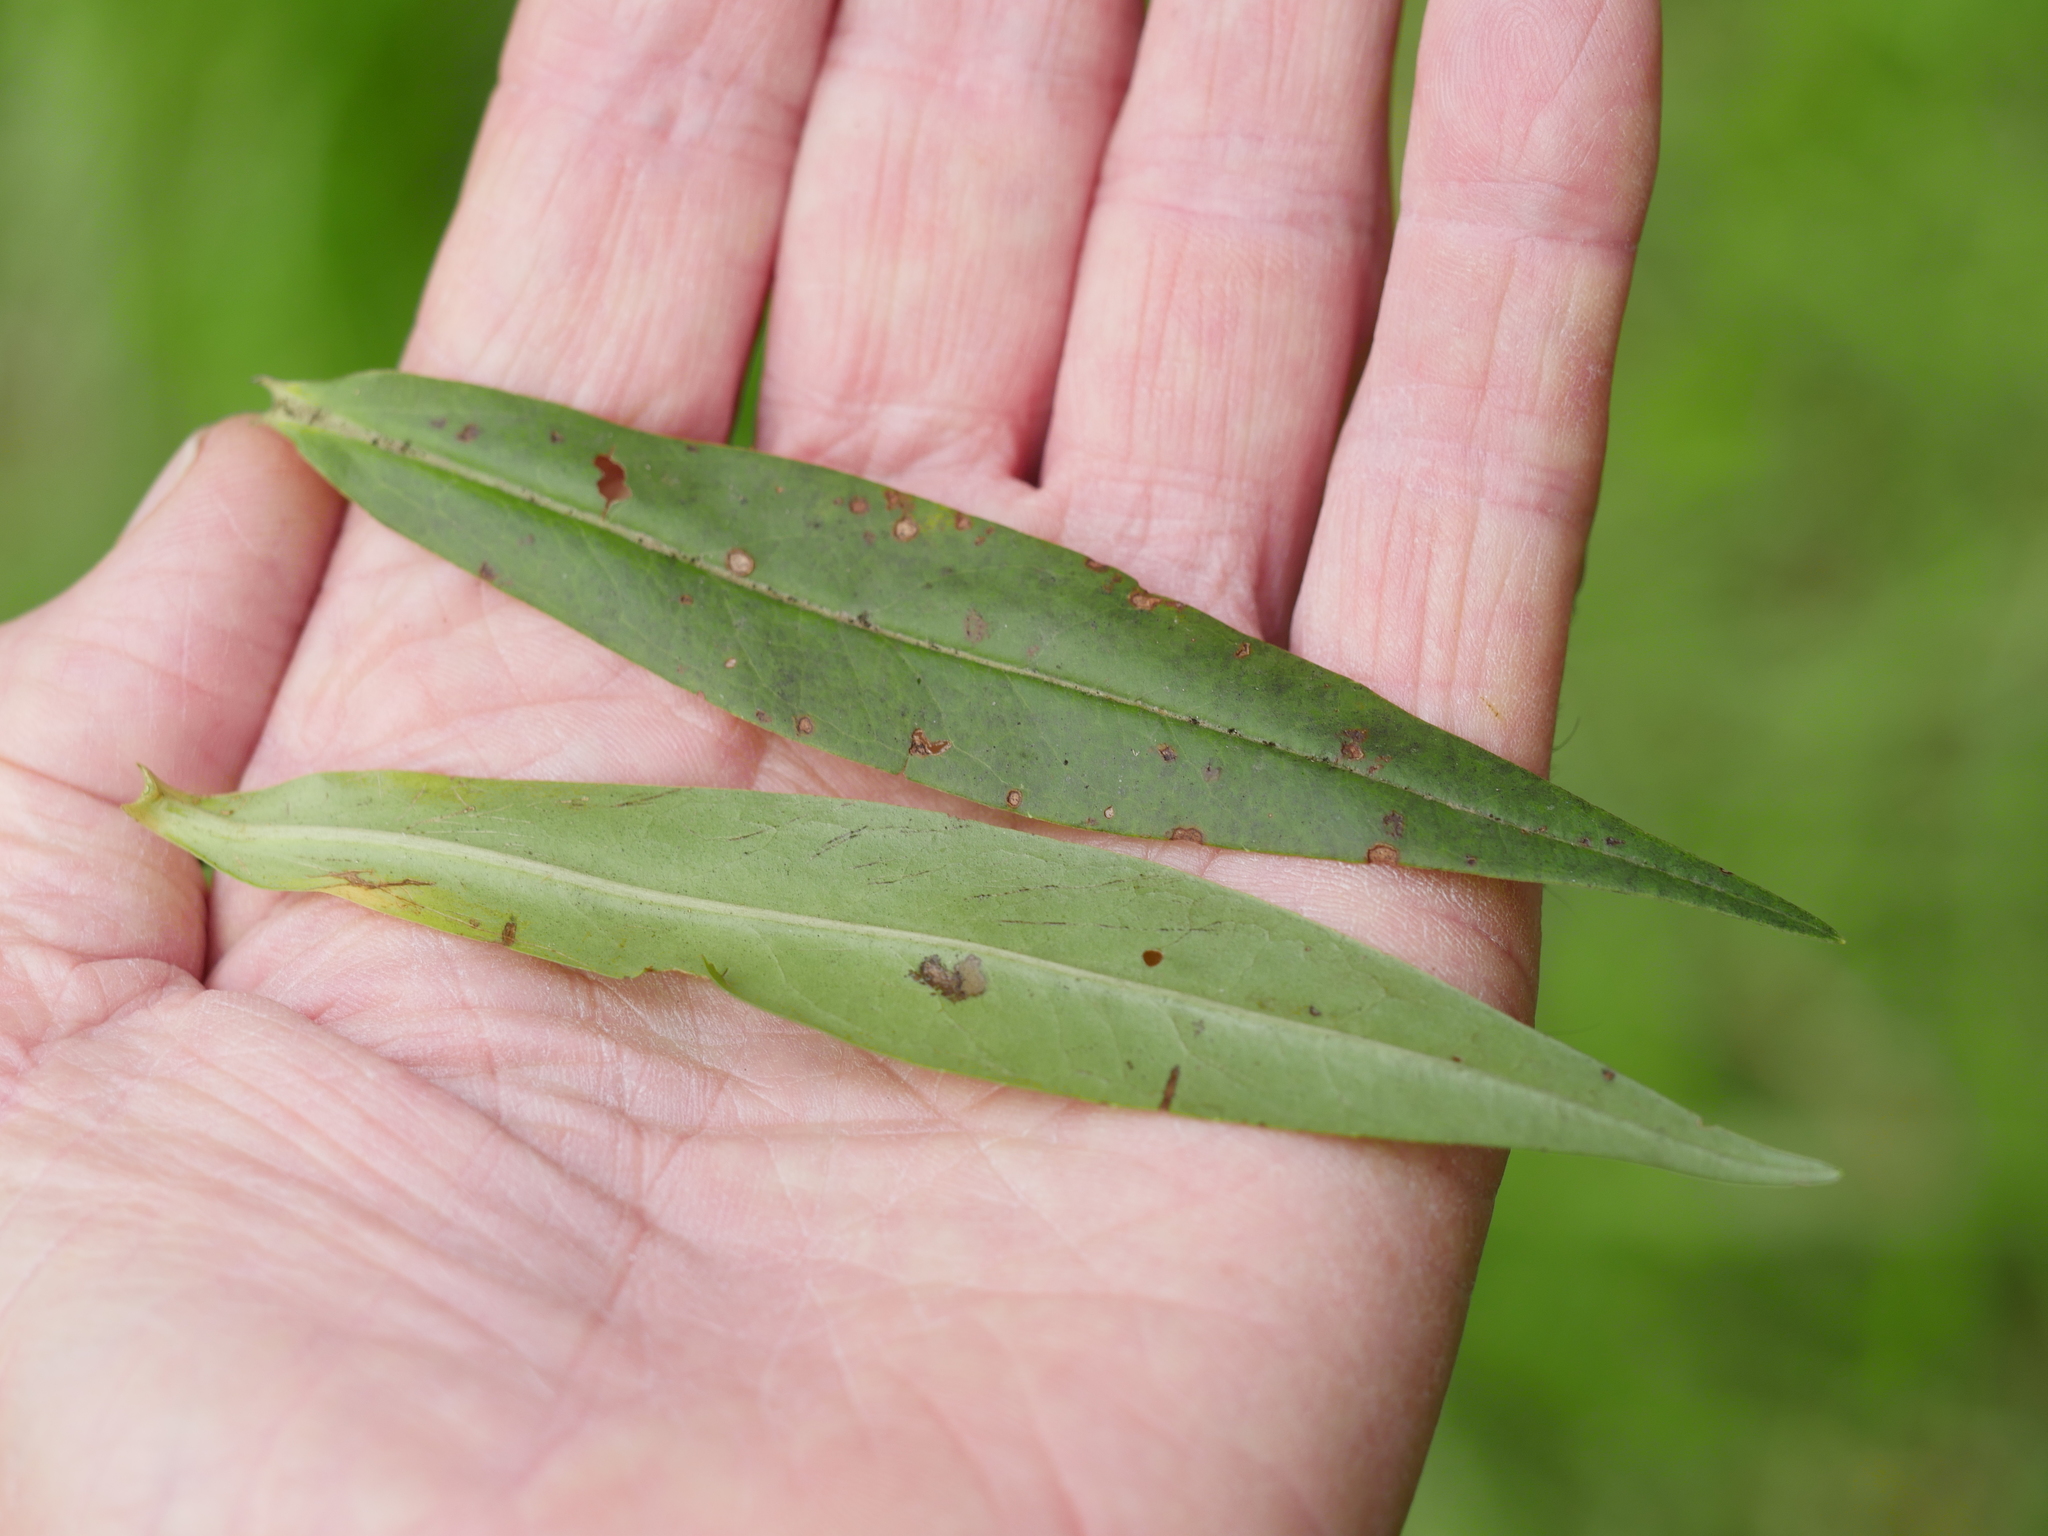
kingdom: Plantae
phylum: Tracheophyta
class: Magnoliopsida
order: Lamiales
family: Plantaginaceae
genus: Veronica
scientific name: Veronica stricta
